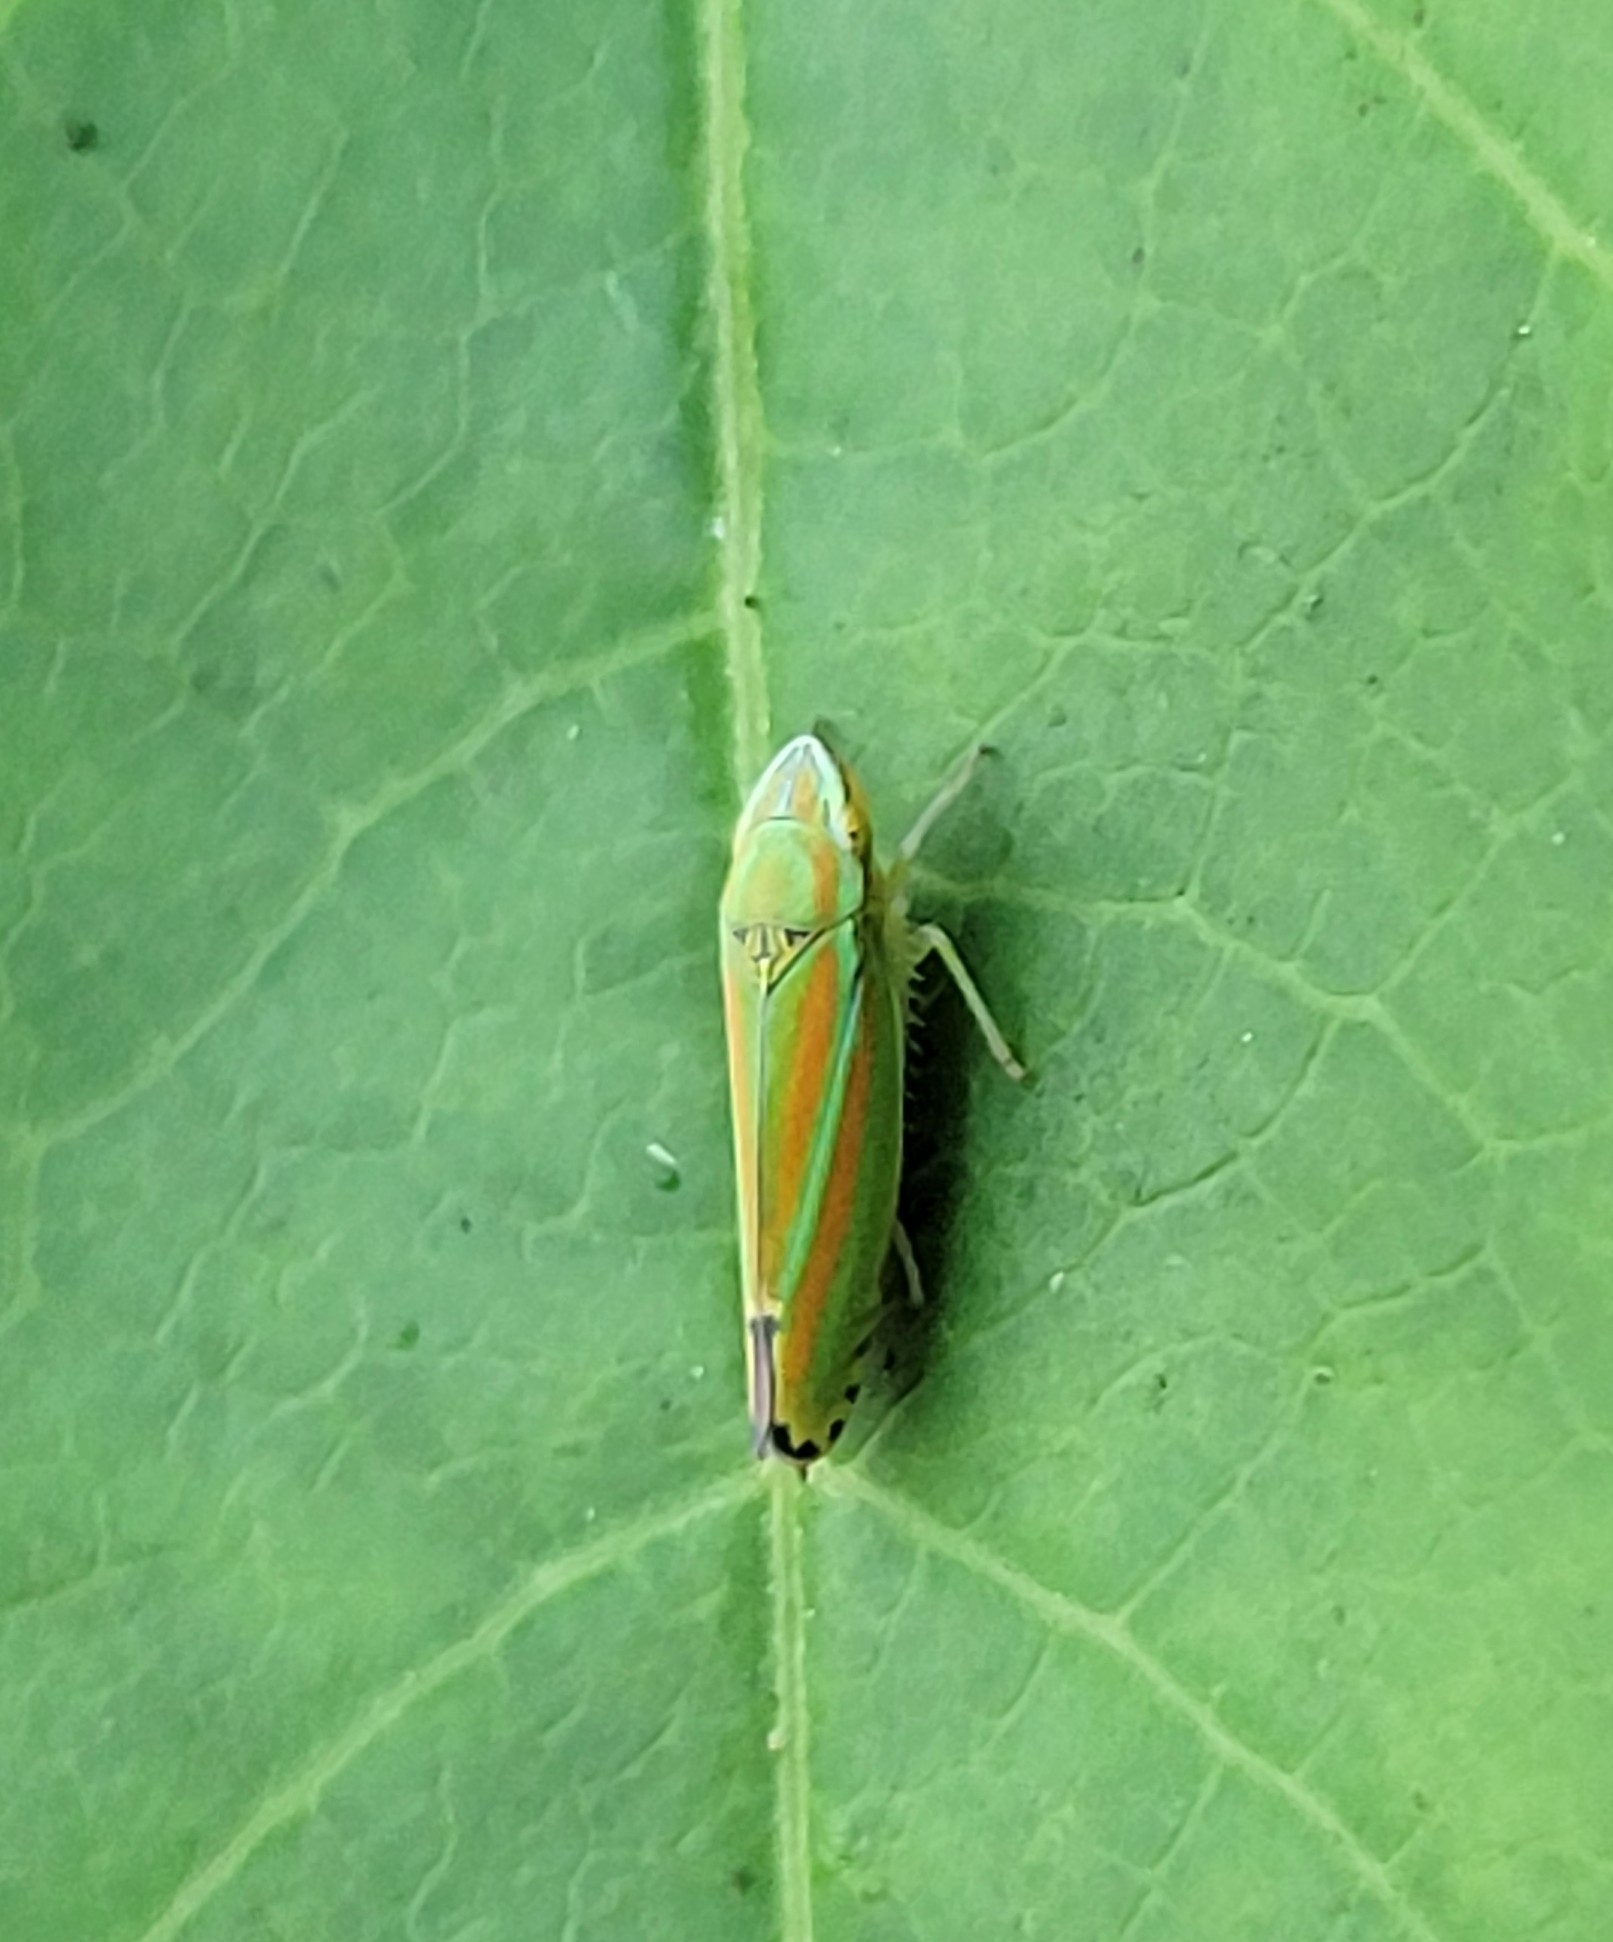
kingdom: Animalia
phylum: Arthropoda
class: Insecta
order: Hemiptera
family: Cicadellidae
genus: Graphocephala
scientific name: Graphocephala versuta
